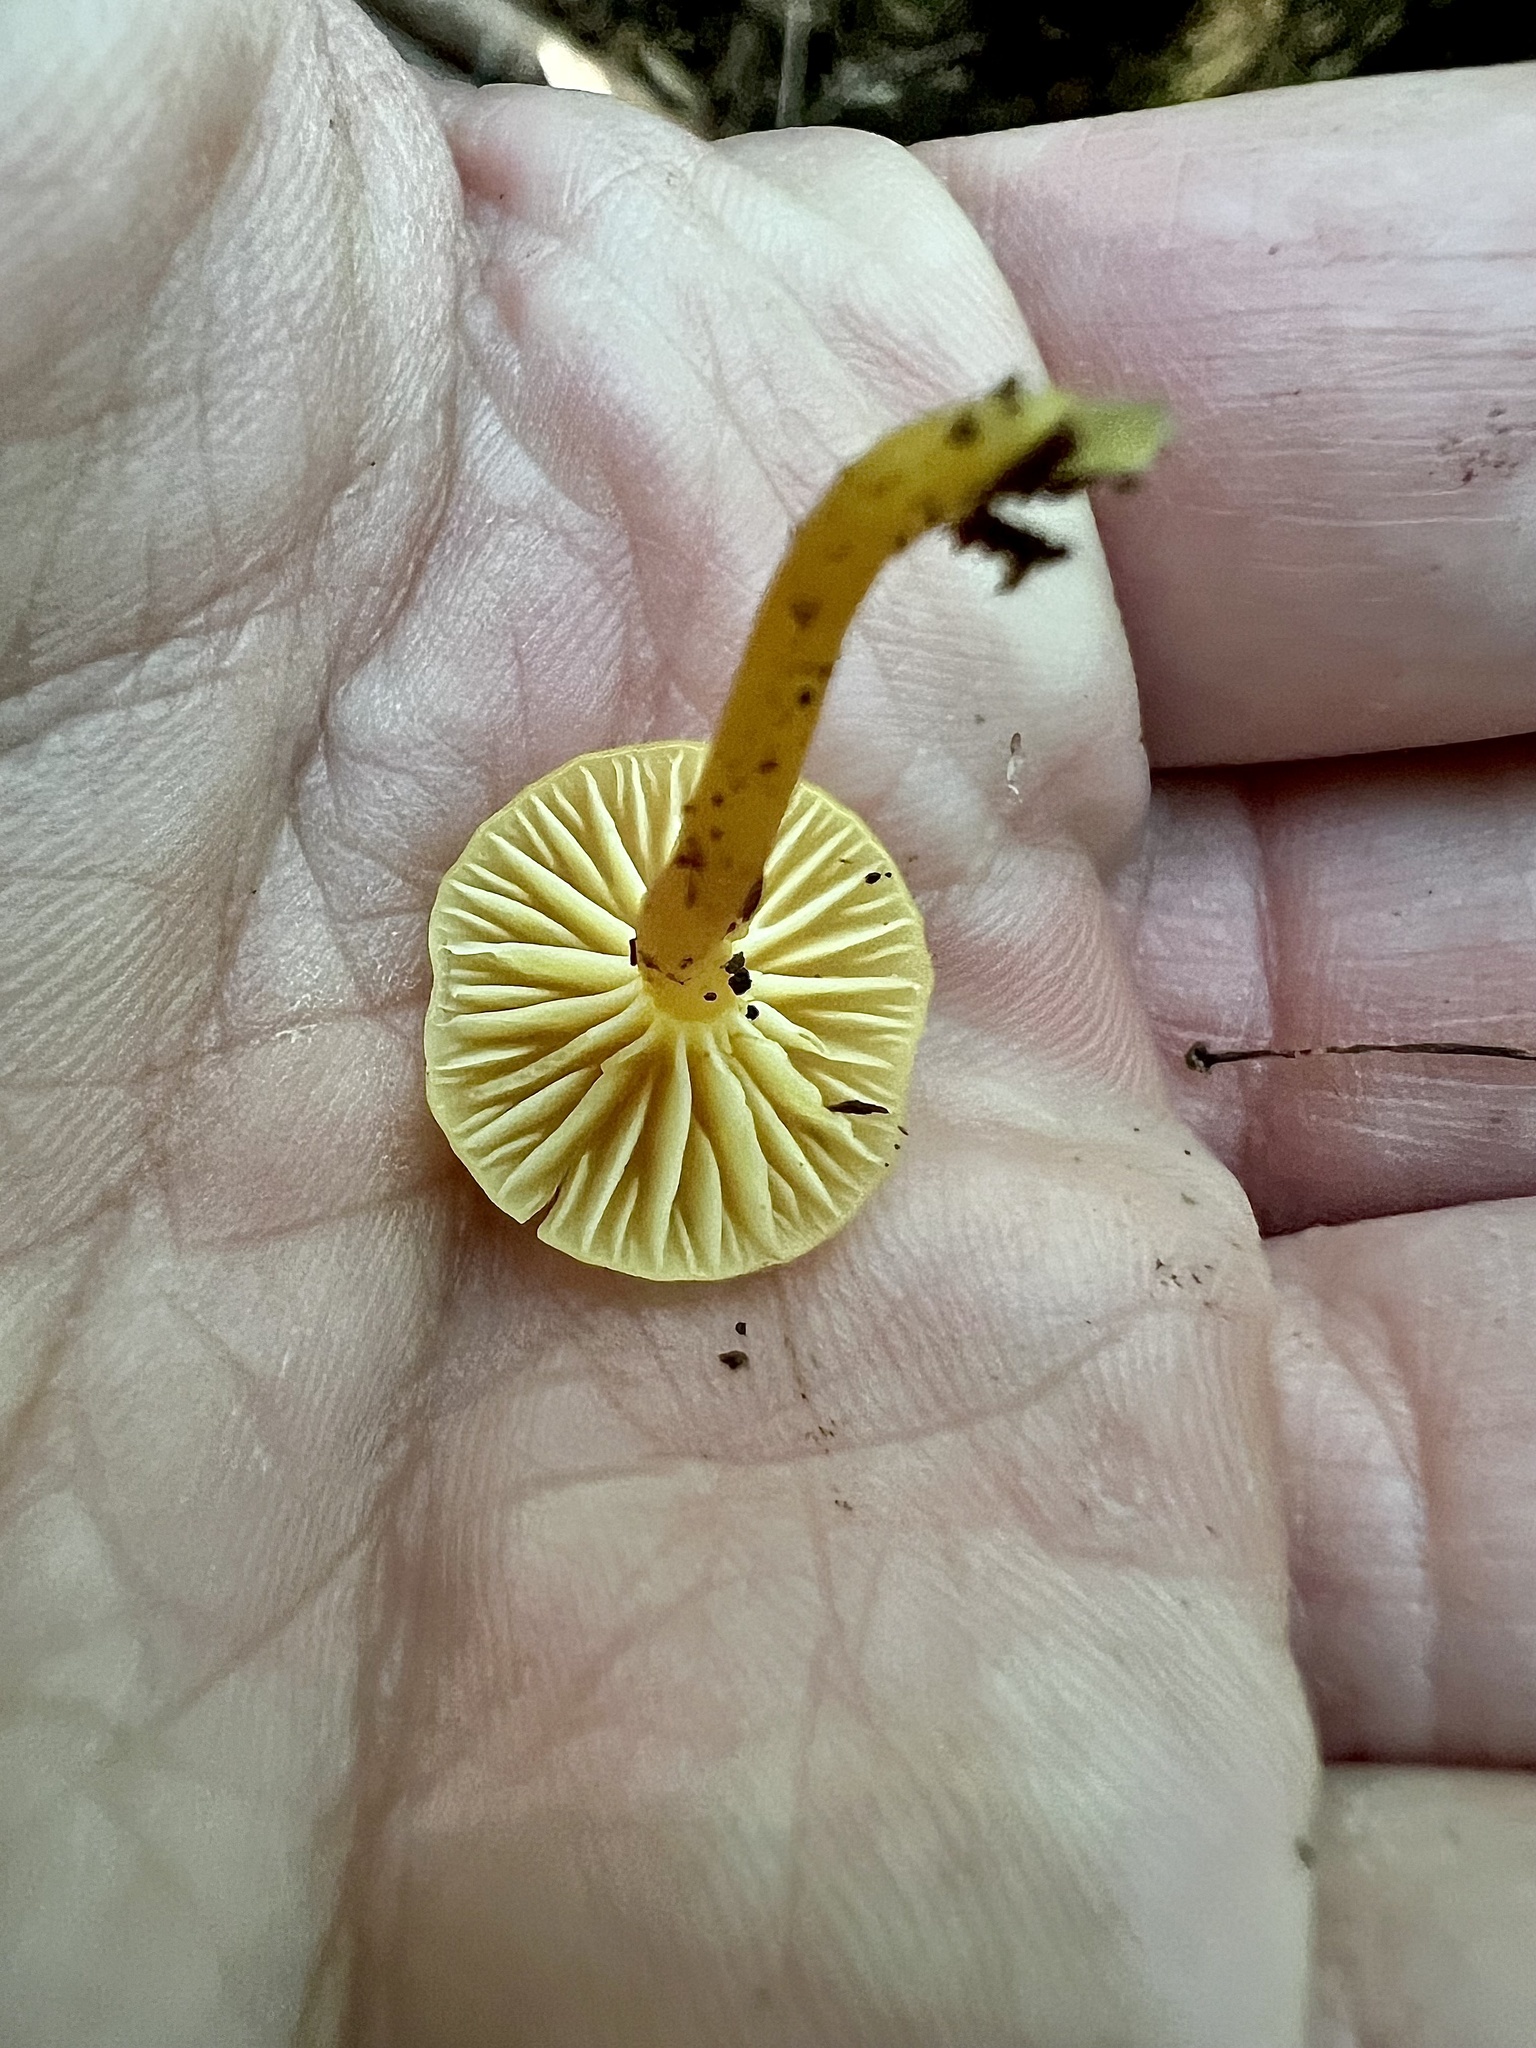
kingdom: Fungi
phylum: Basidiomycota
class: Agaricomycetes
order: Agaricales
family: Hygrophoraceae
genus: Hygrocybe
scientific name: Hygrocybe ceracea
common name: Butter waxcap
